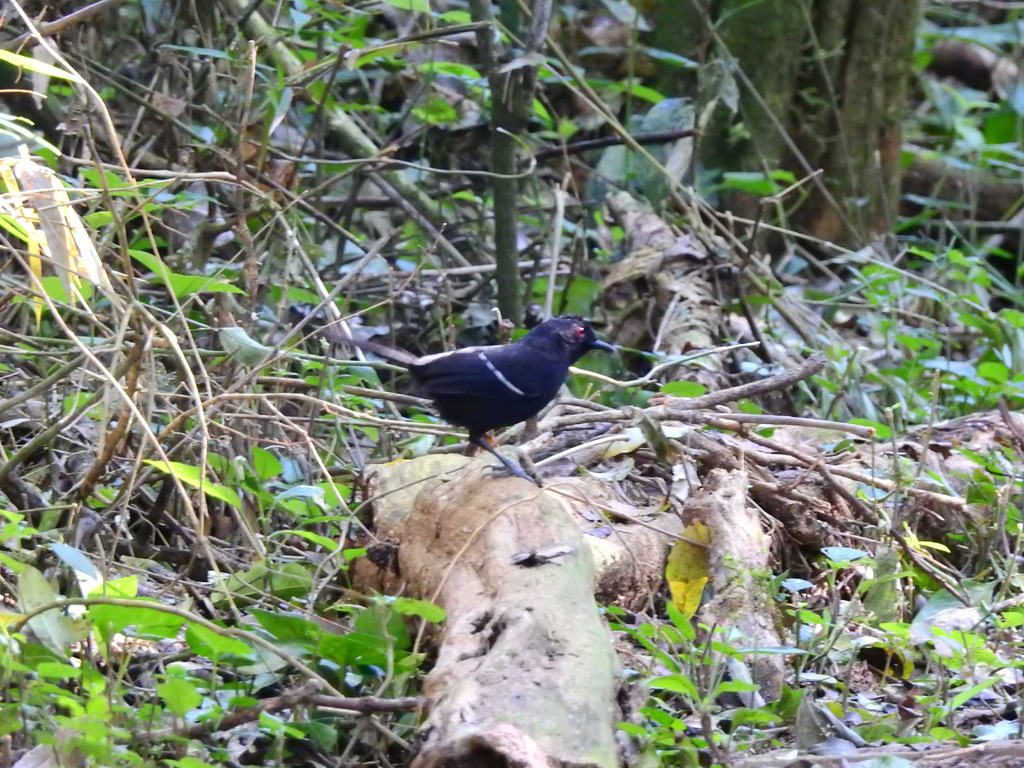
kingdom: Animalia
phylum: Chordata
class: Aves
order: Passeriformes
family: Thamnophilidae
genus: Pyriglena
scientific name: Pyriglena leucoptera
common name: White-shouldered fire-eye
